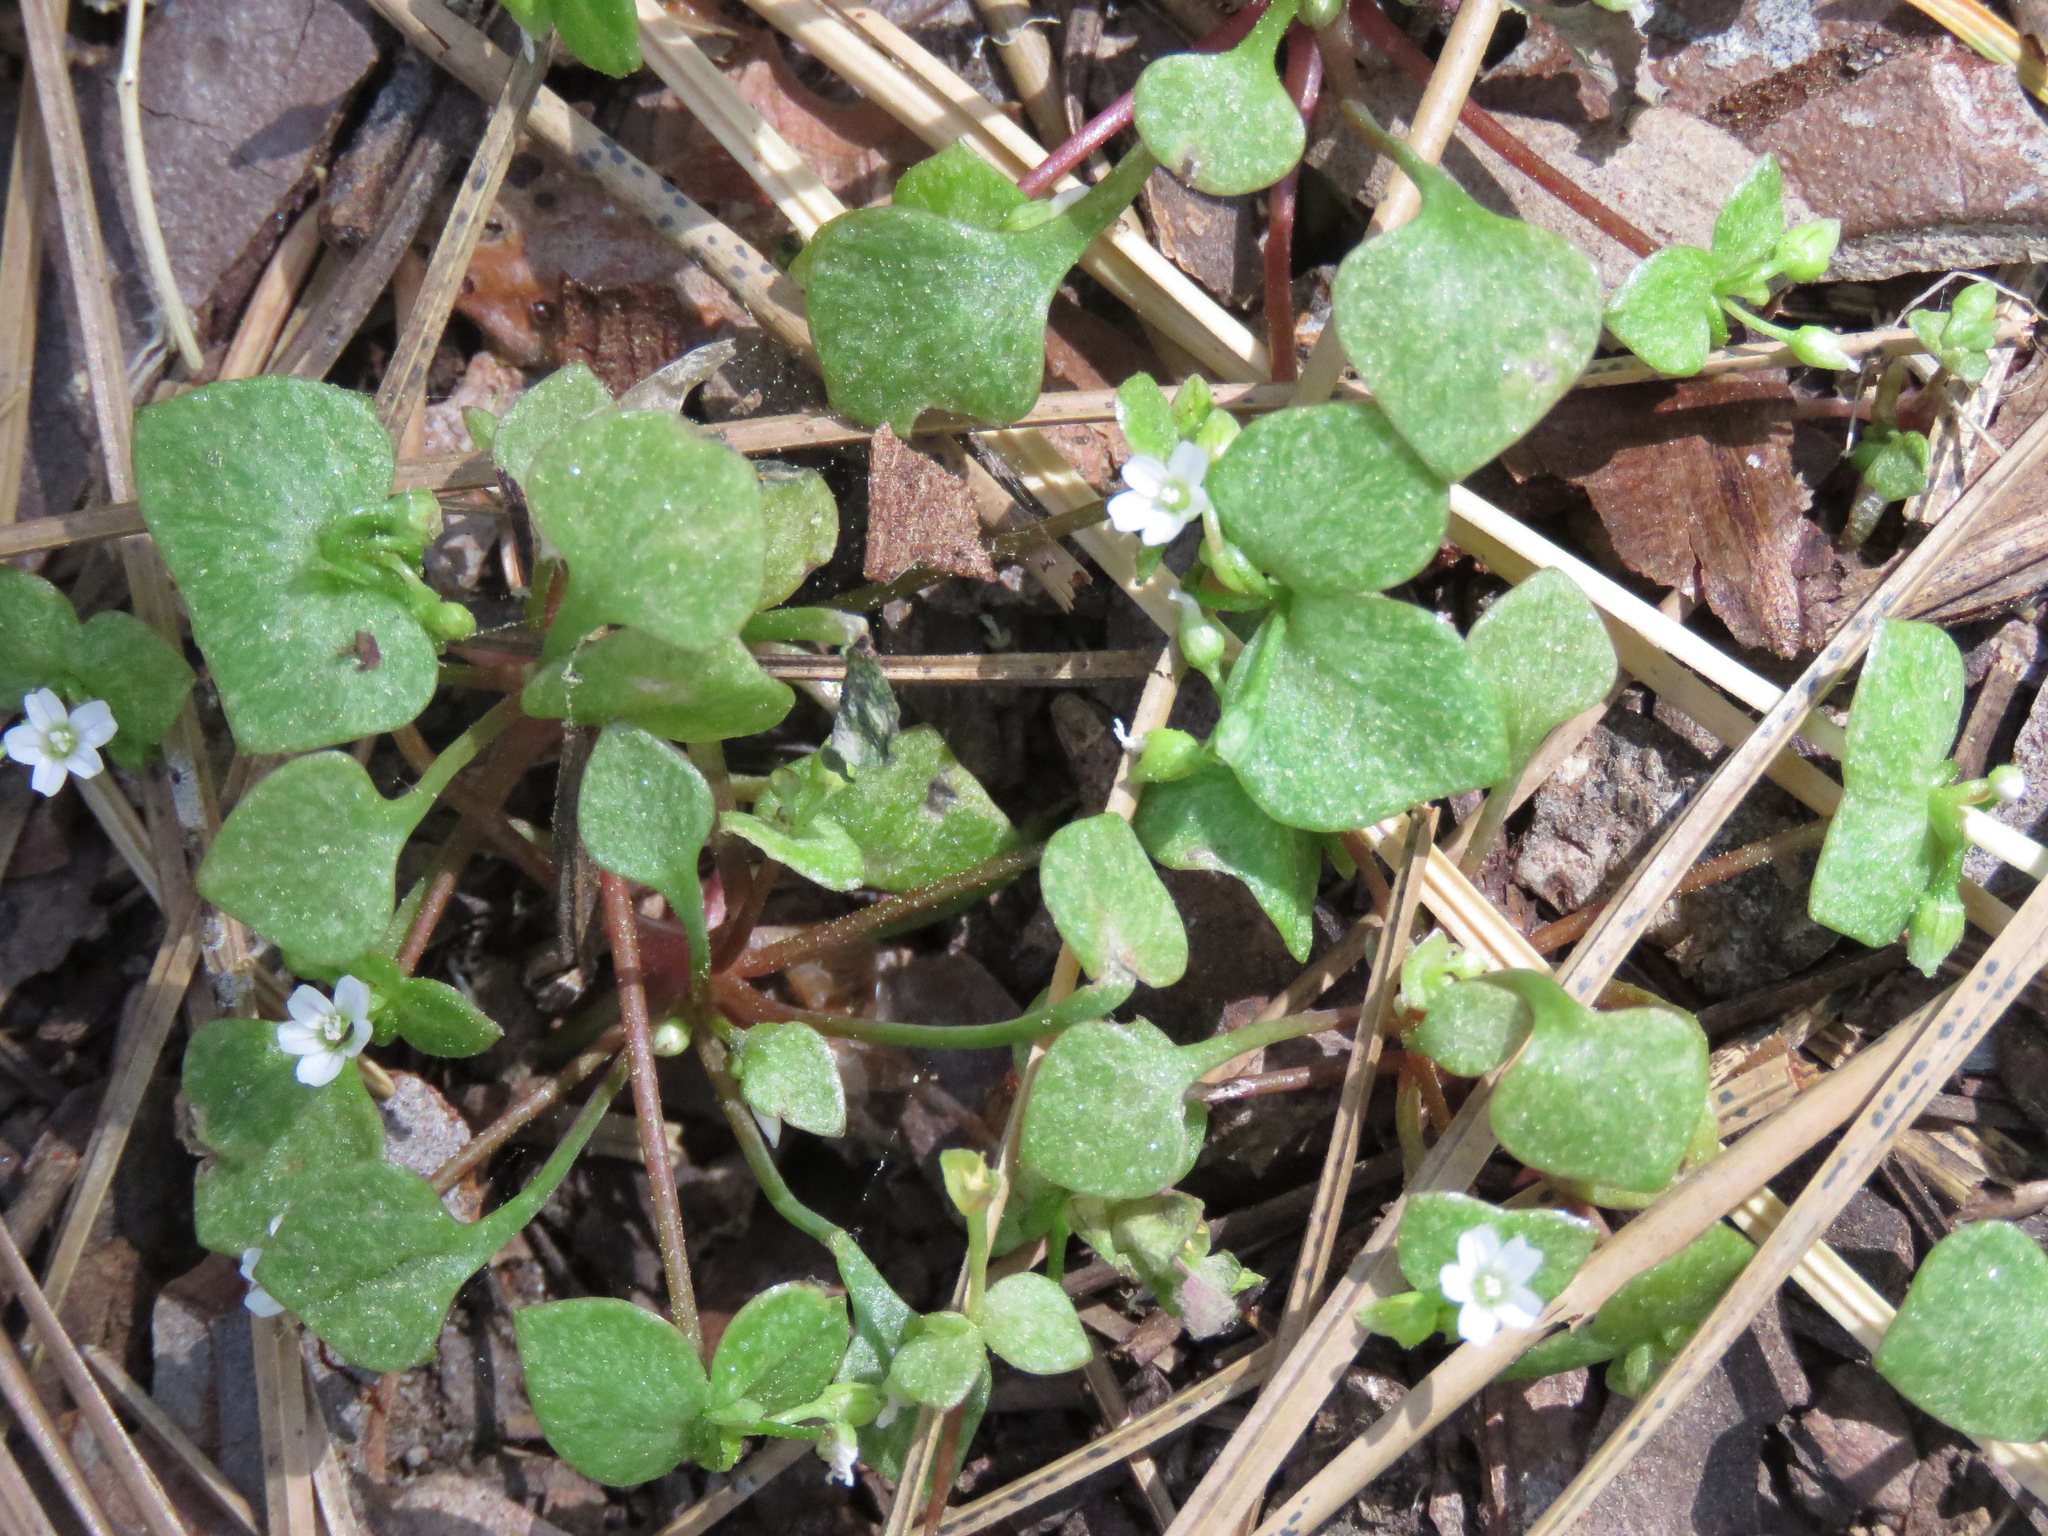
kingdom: Plantae
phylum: Tracheophyta
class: Magnoliopsida
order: Caryophyllales
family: Montiaceae
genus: Claytonia
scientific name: Claytonia rubra
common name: Erubescent miner's-lettuce
